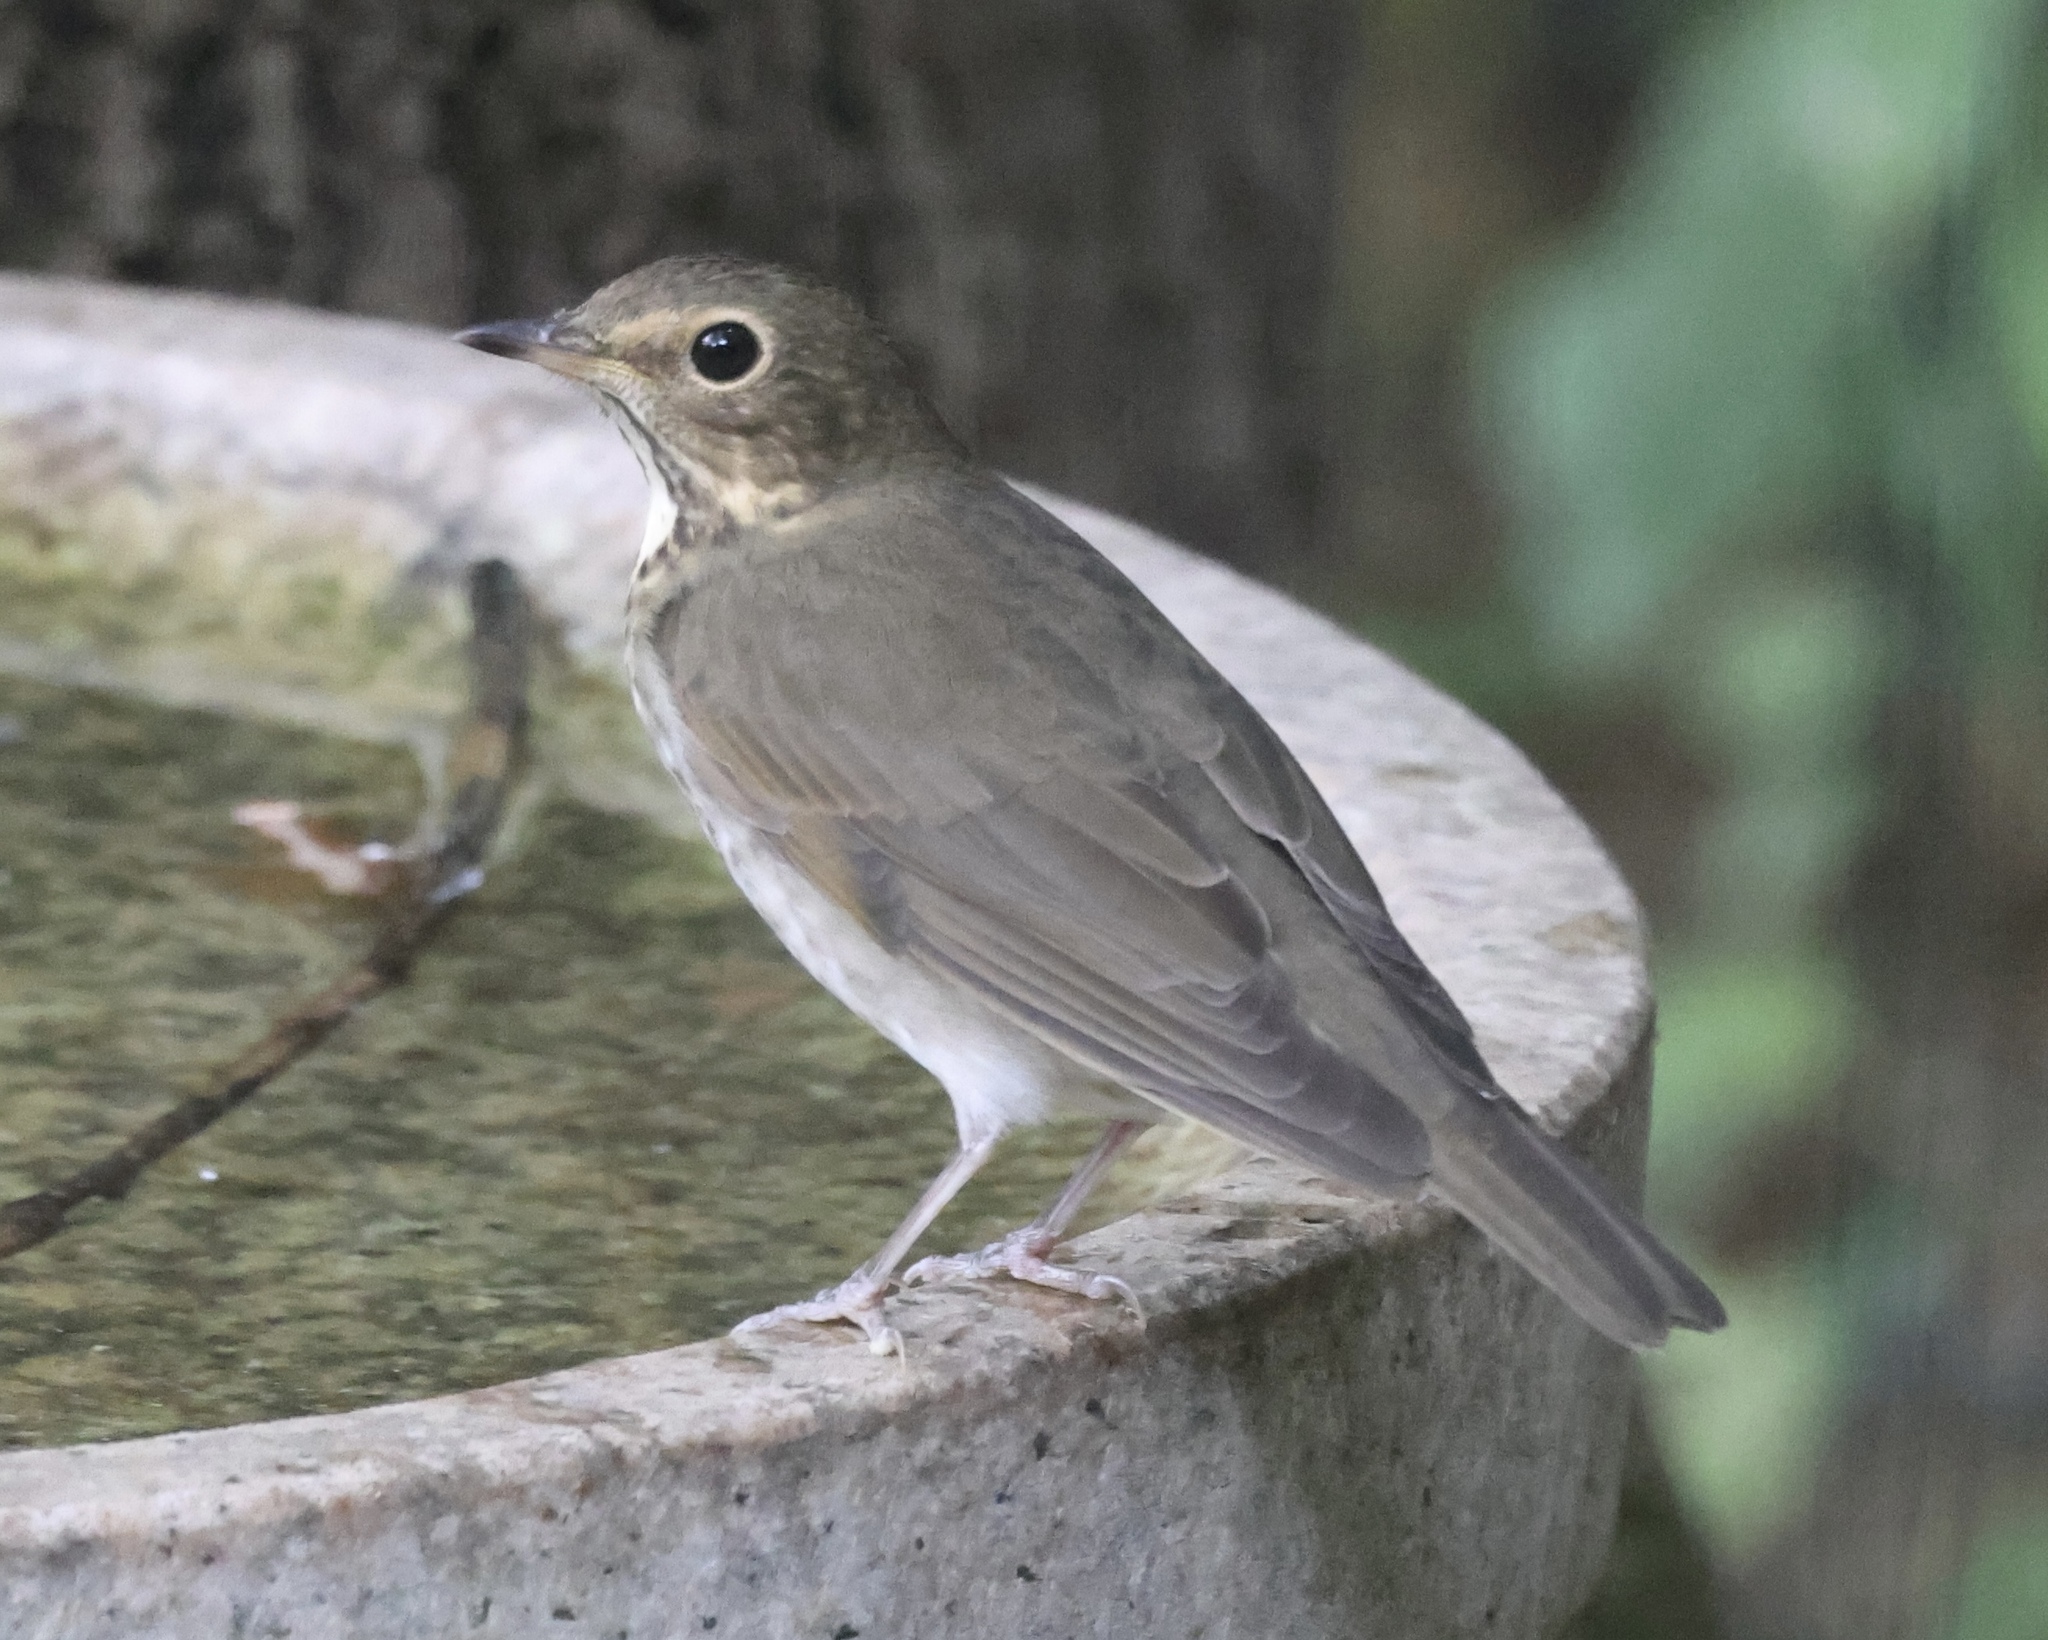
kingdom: Animalia
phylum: Chordata
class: Aves
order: Passeriformes
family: Turdidae
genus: Catharus
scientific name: Catharus ustulatus
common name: Swainson's thrush
